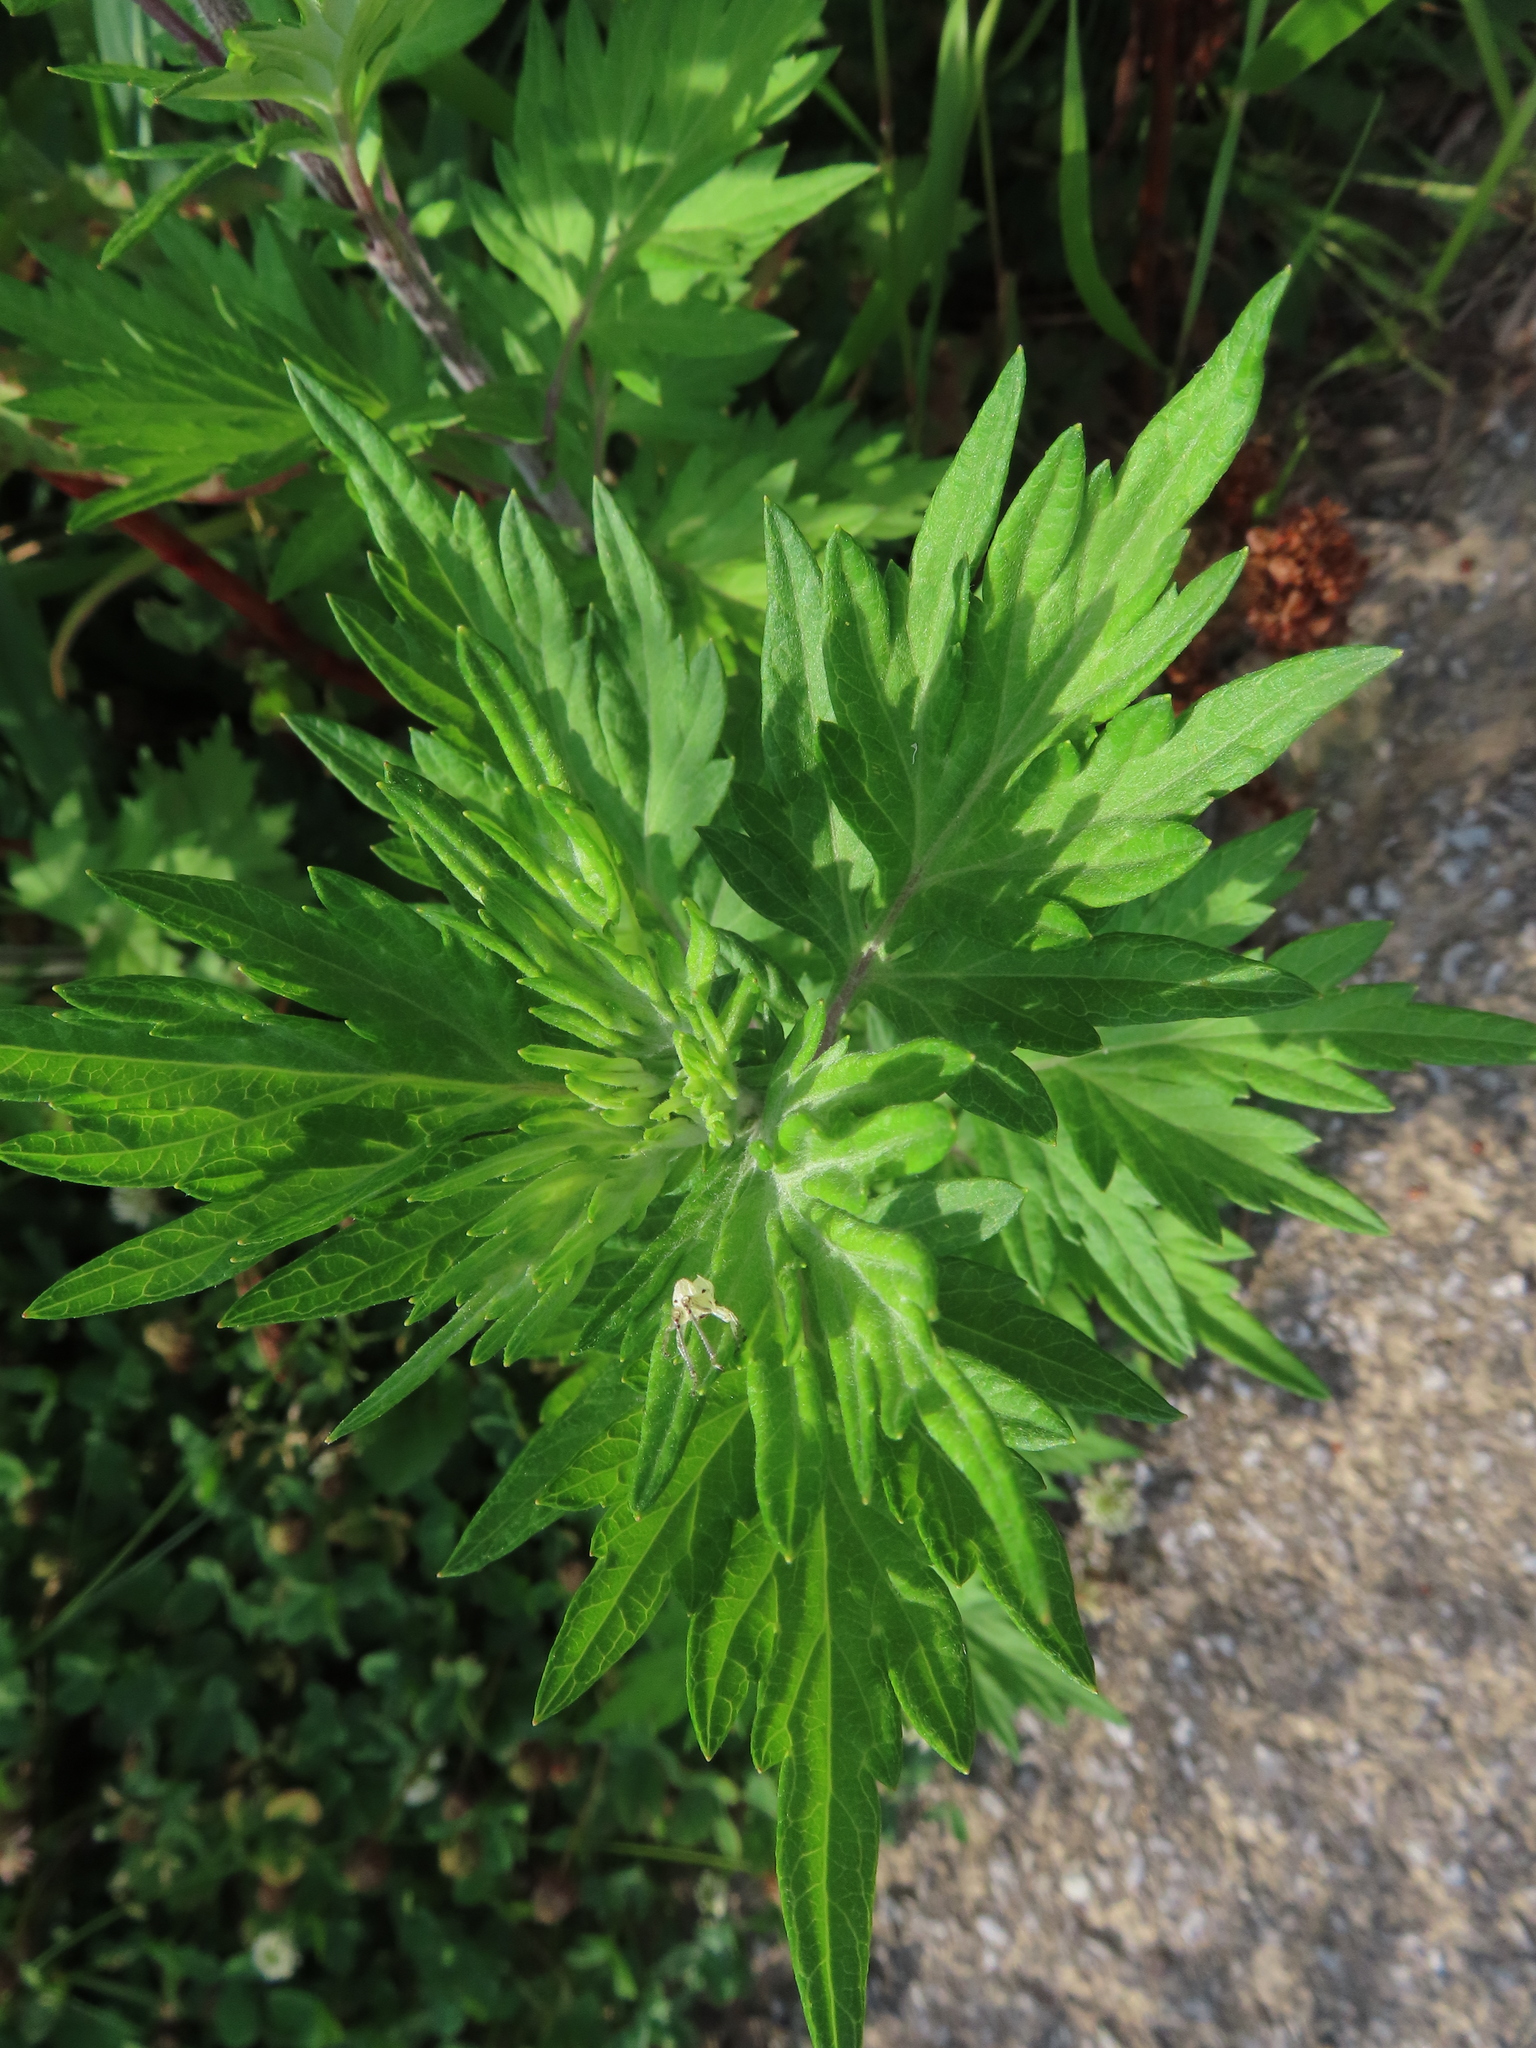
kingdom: Plantae
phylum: Tracheophyta
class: Magnoliopsida
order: Asterales
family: Asteraceae
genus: Artemisia
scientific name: Artemisia vulgaris
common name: Mugwort
